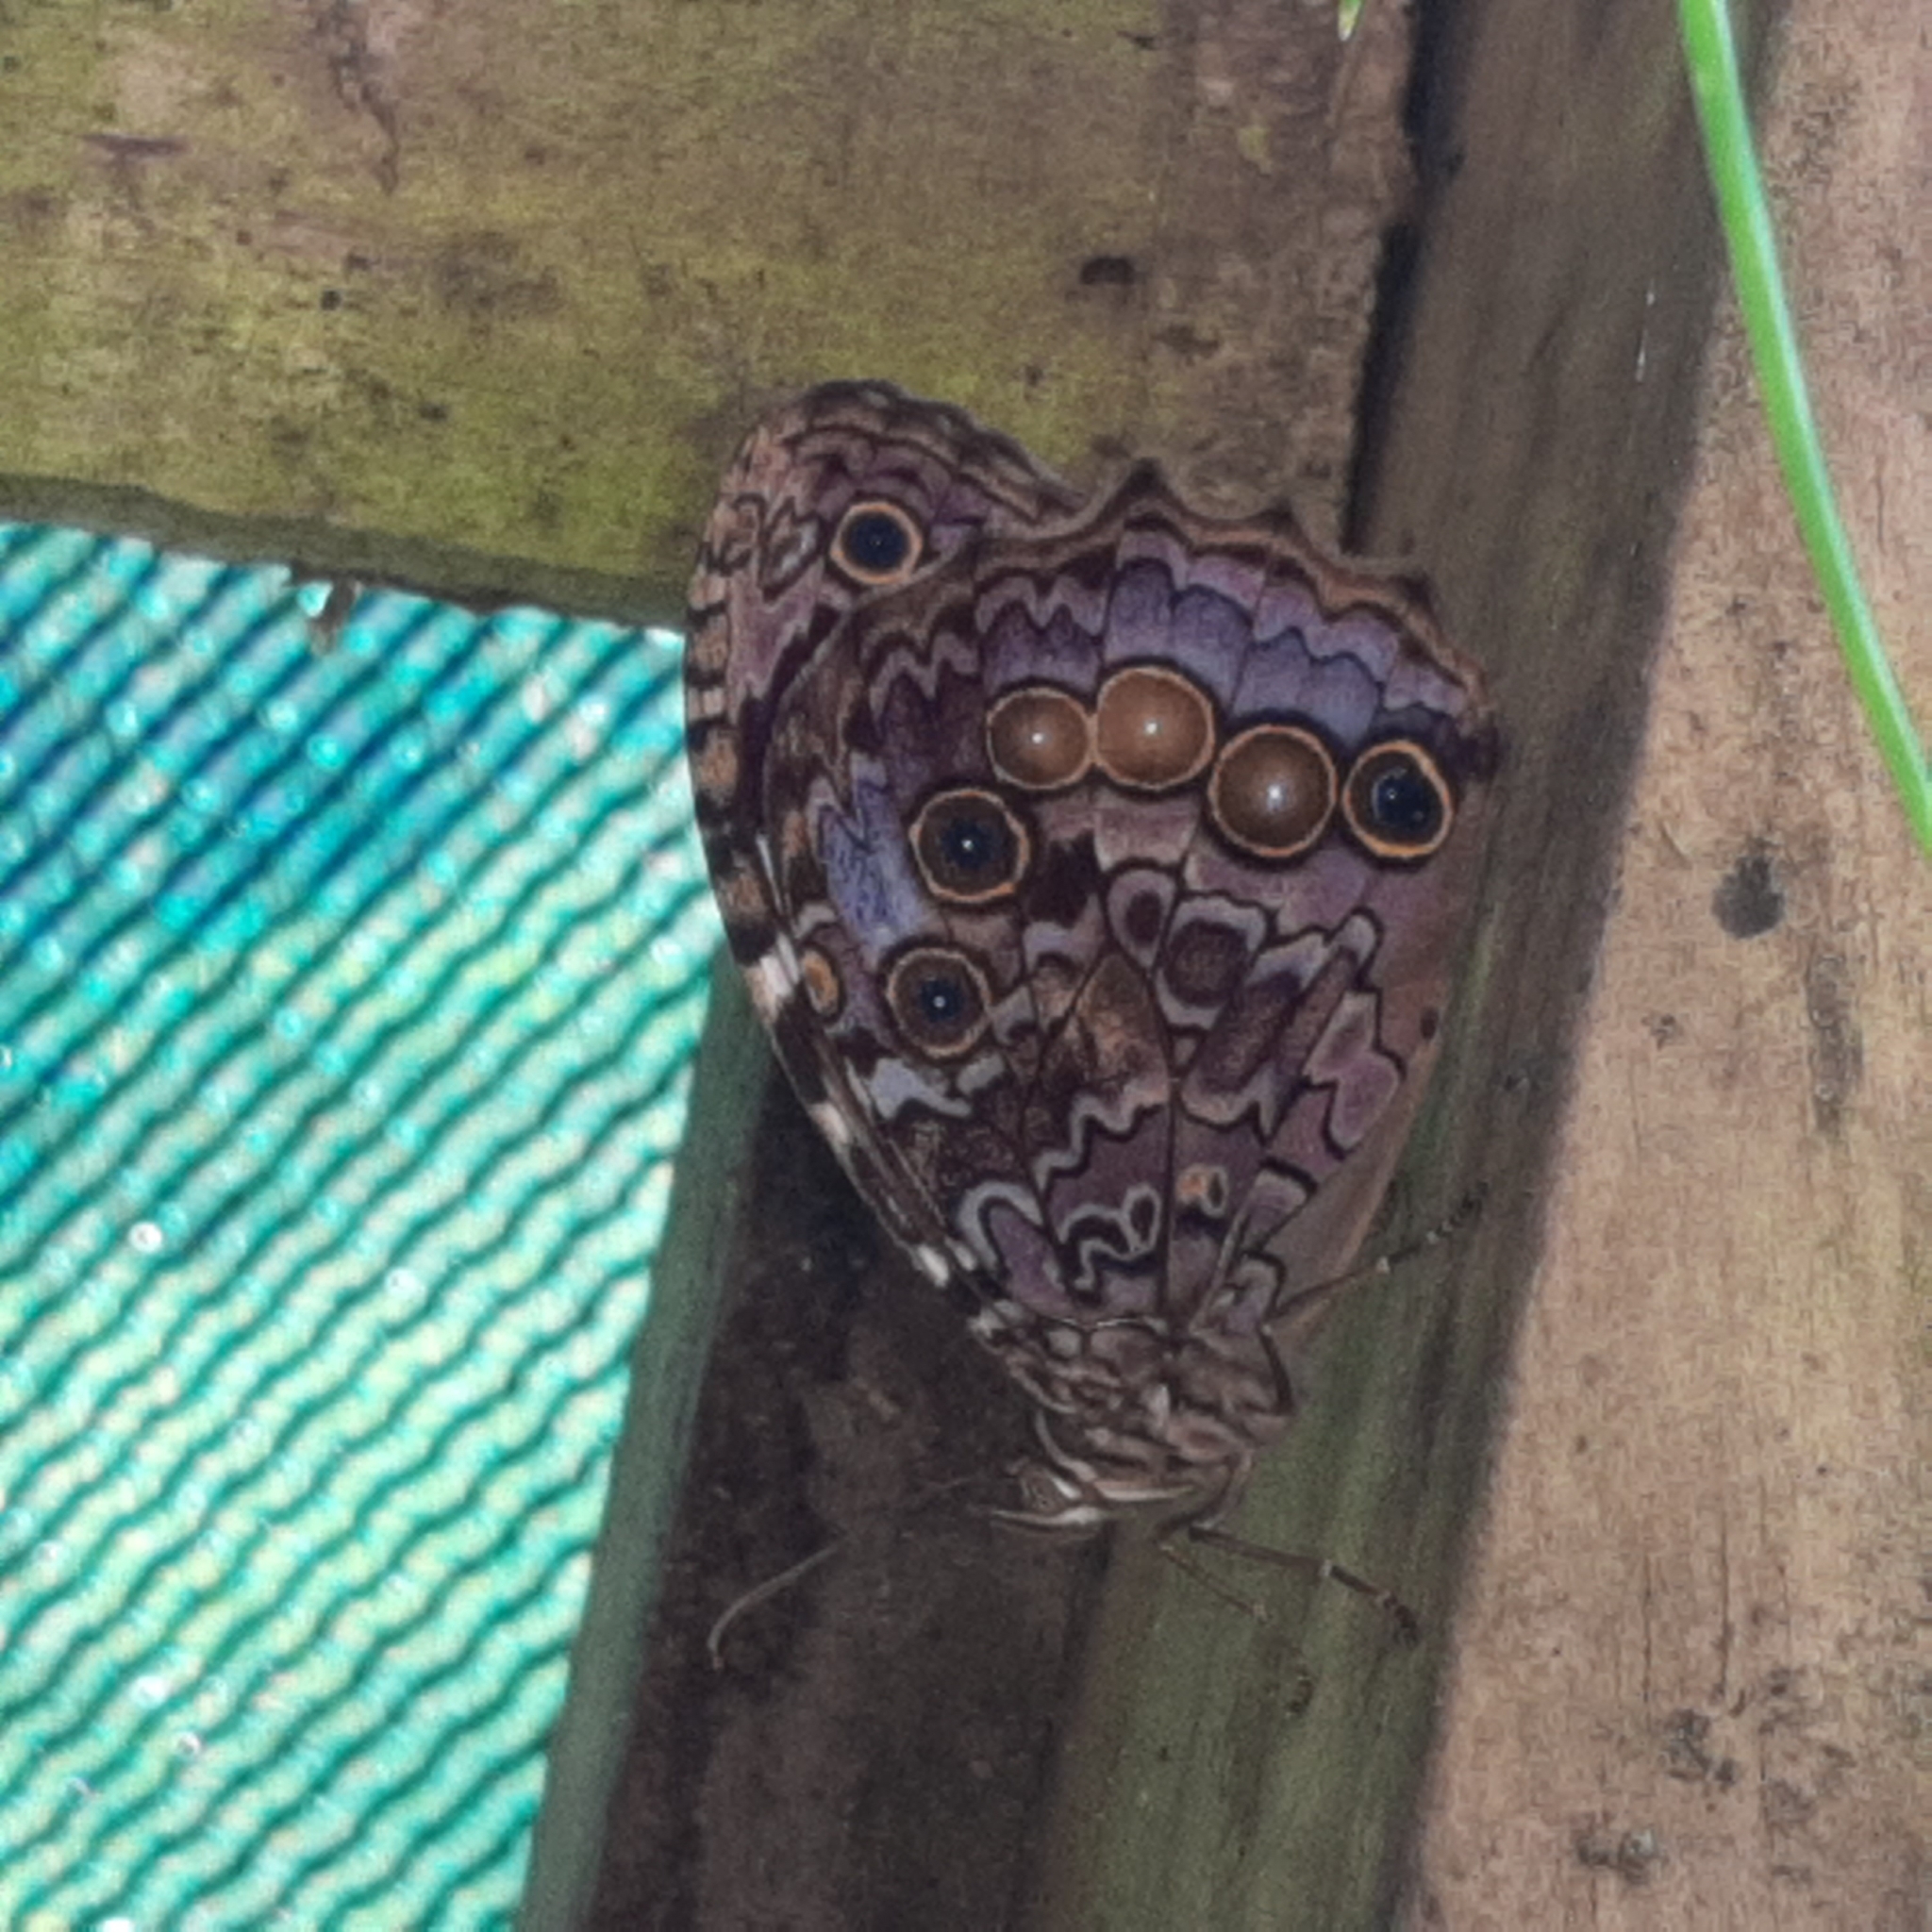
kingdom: Animalia
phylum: Arthropoda
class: Insecta
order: Lepidoptera
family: Nymphalidae
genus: Manataria
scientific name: Manataria maculata
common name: White-spotted satyr
